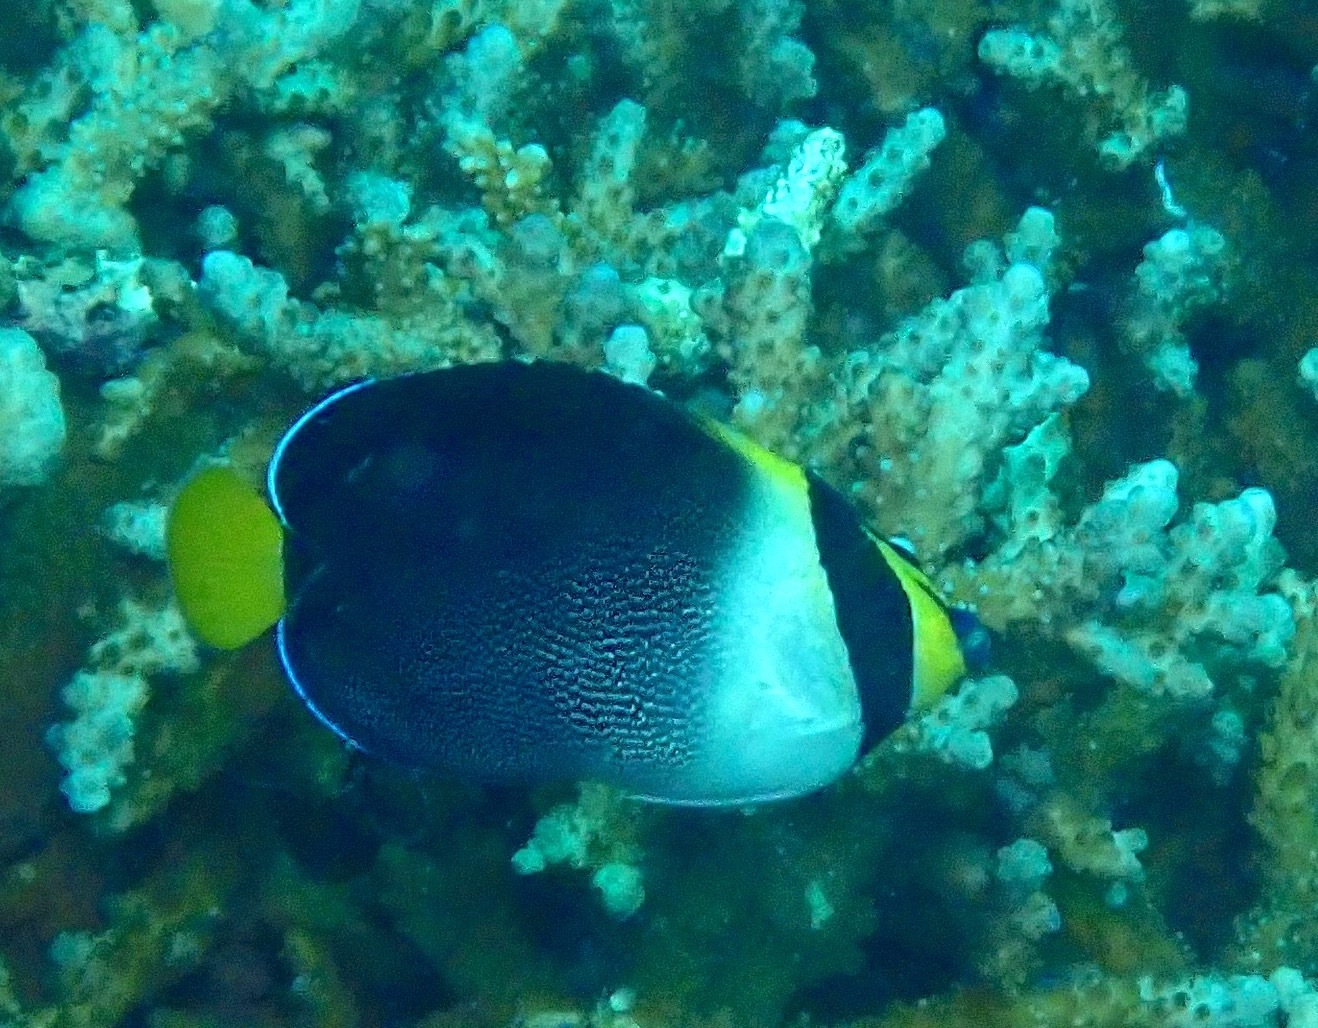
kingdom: Animalia
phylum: Chordata
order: Perciformes
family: Pomacanthidae
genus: Chaetodontoplus
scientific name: Chaetodontoplus mesoleucus
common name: Vermiculated angelfish
